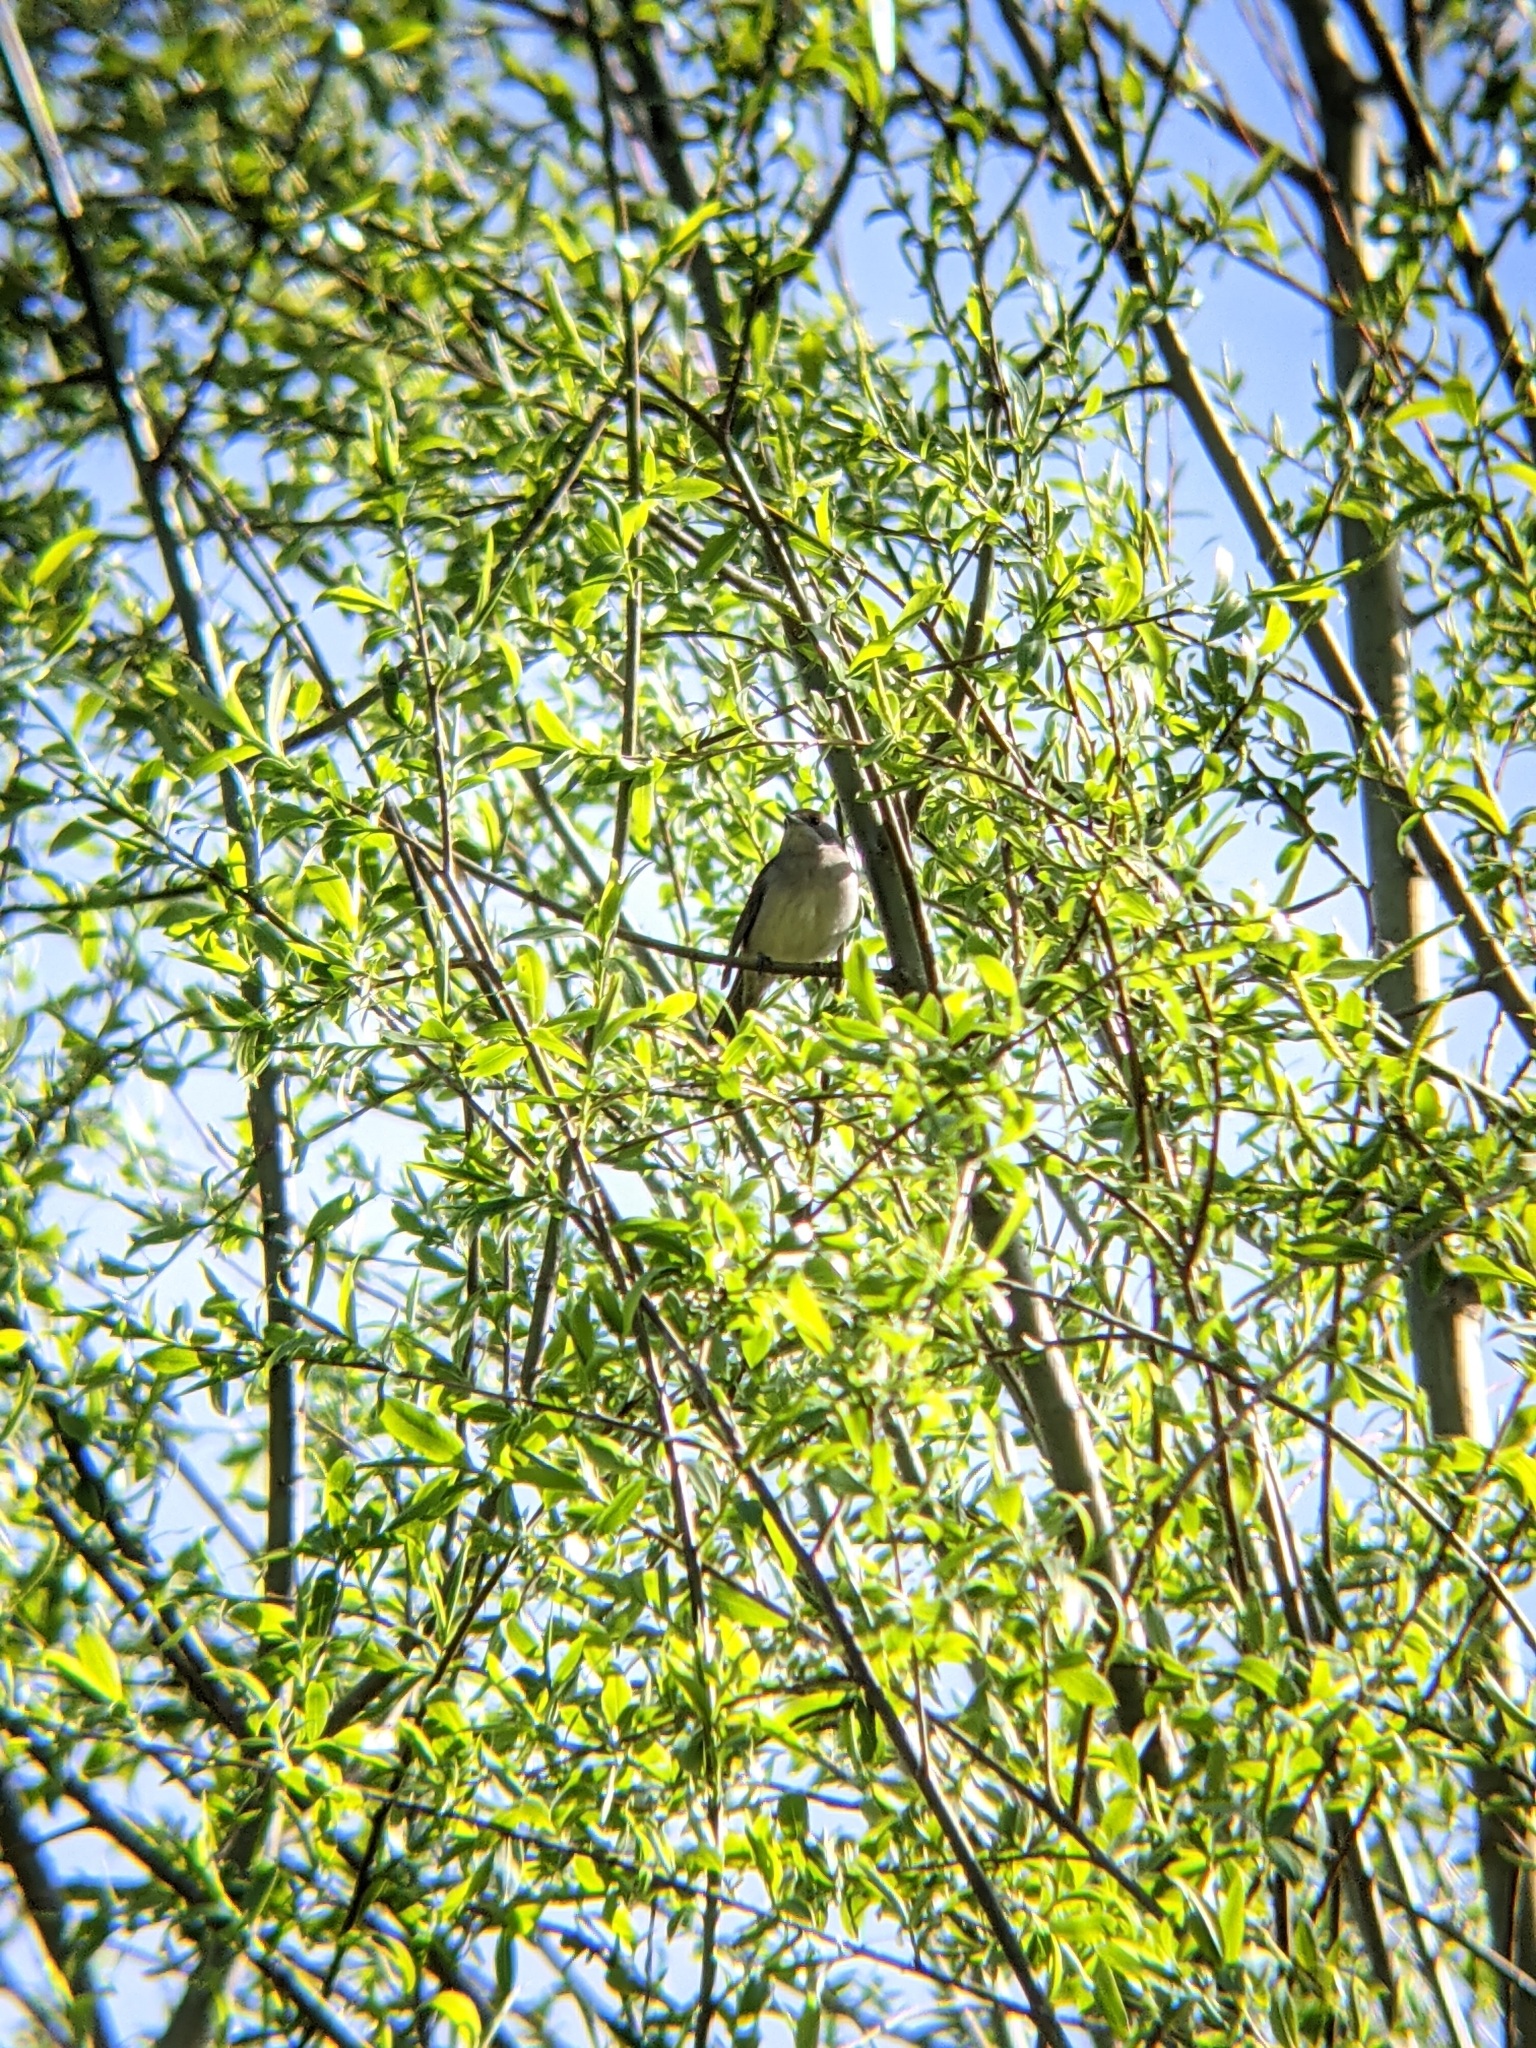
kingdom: Animalia
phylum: Chordata
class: Aves
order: Passeriformes
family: Sylviidae
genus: Sylvia
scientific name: Sylvia atricapilla
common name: Eurasian blackcap
